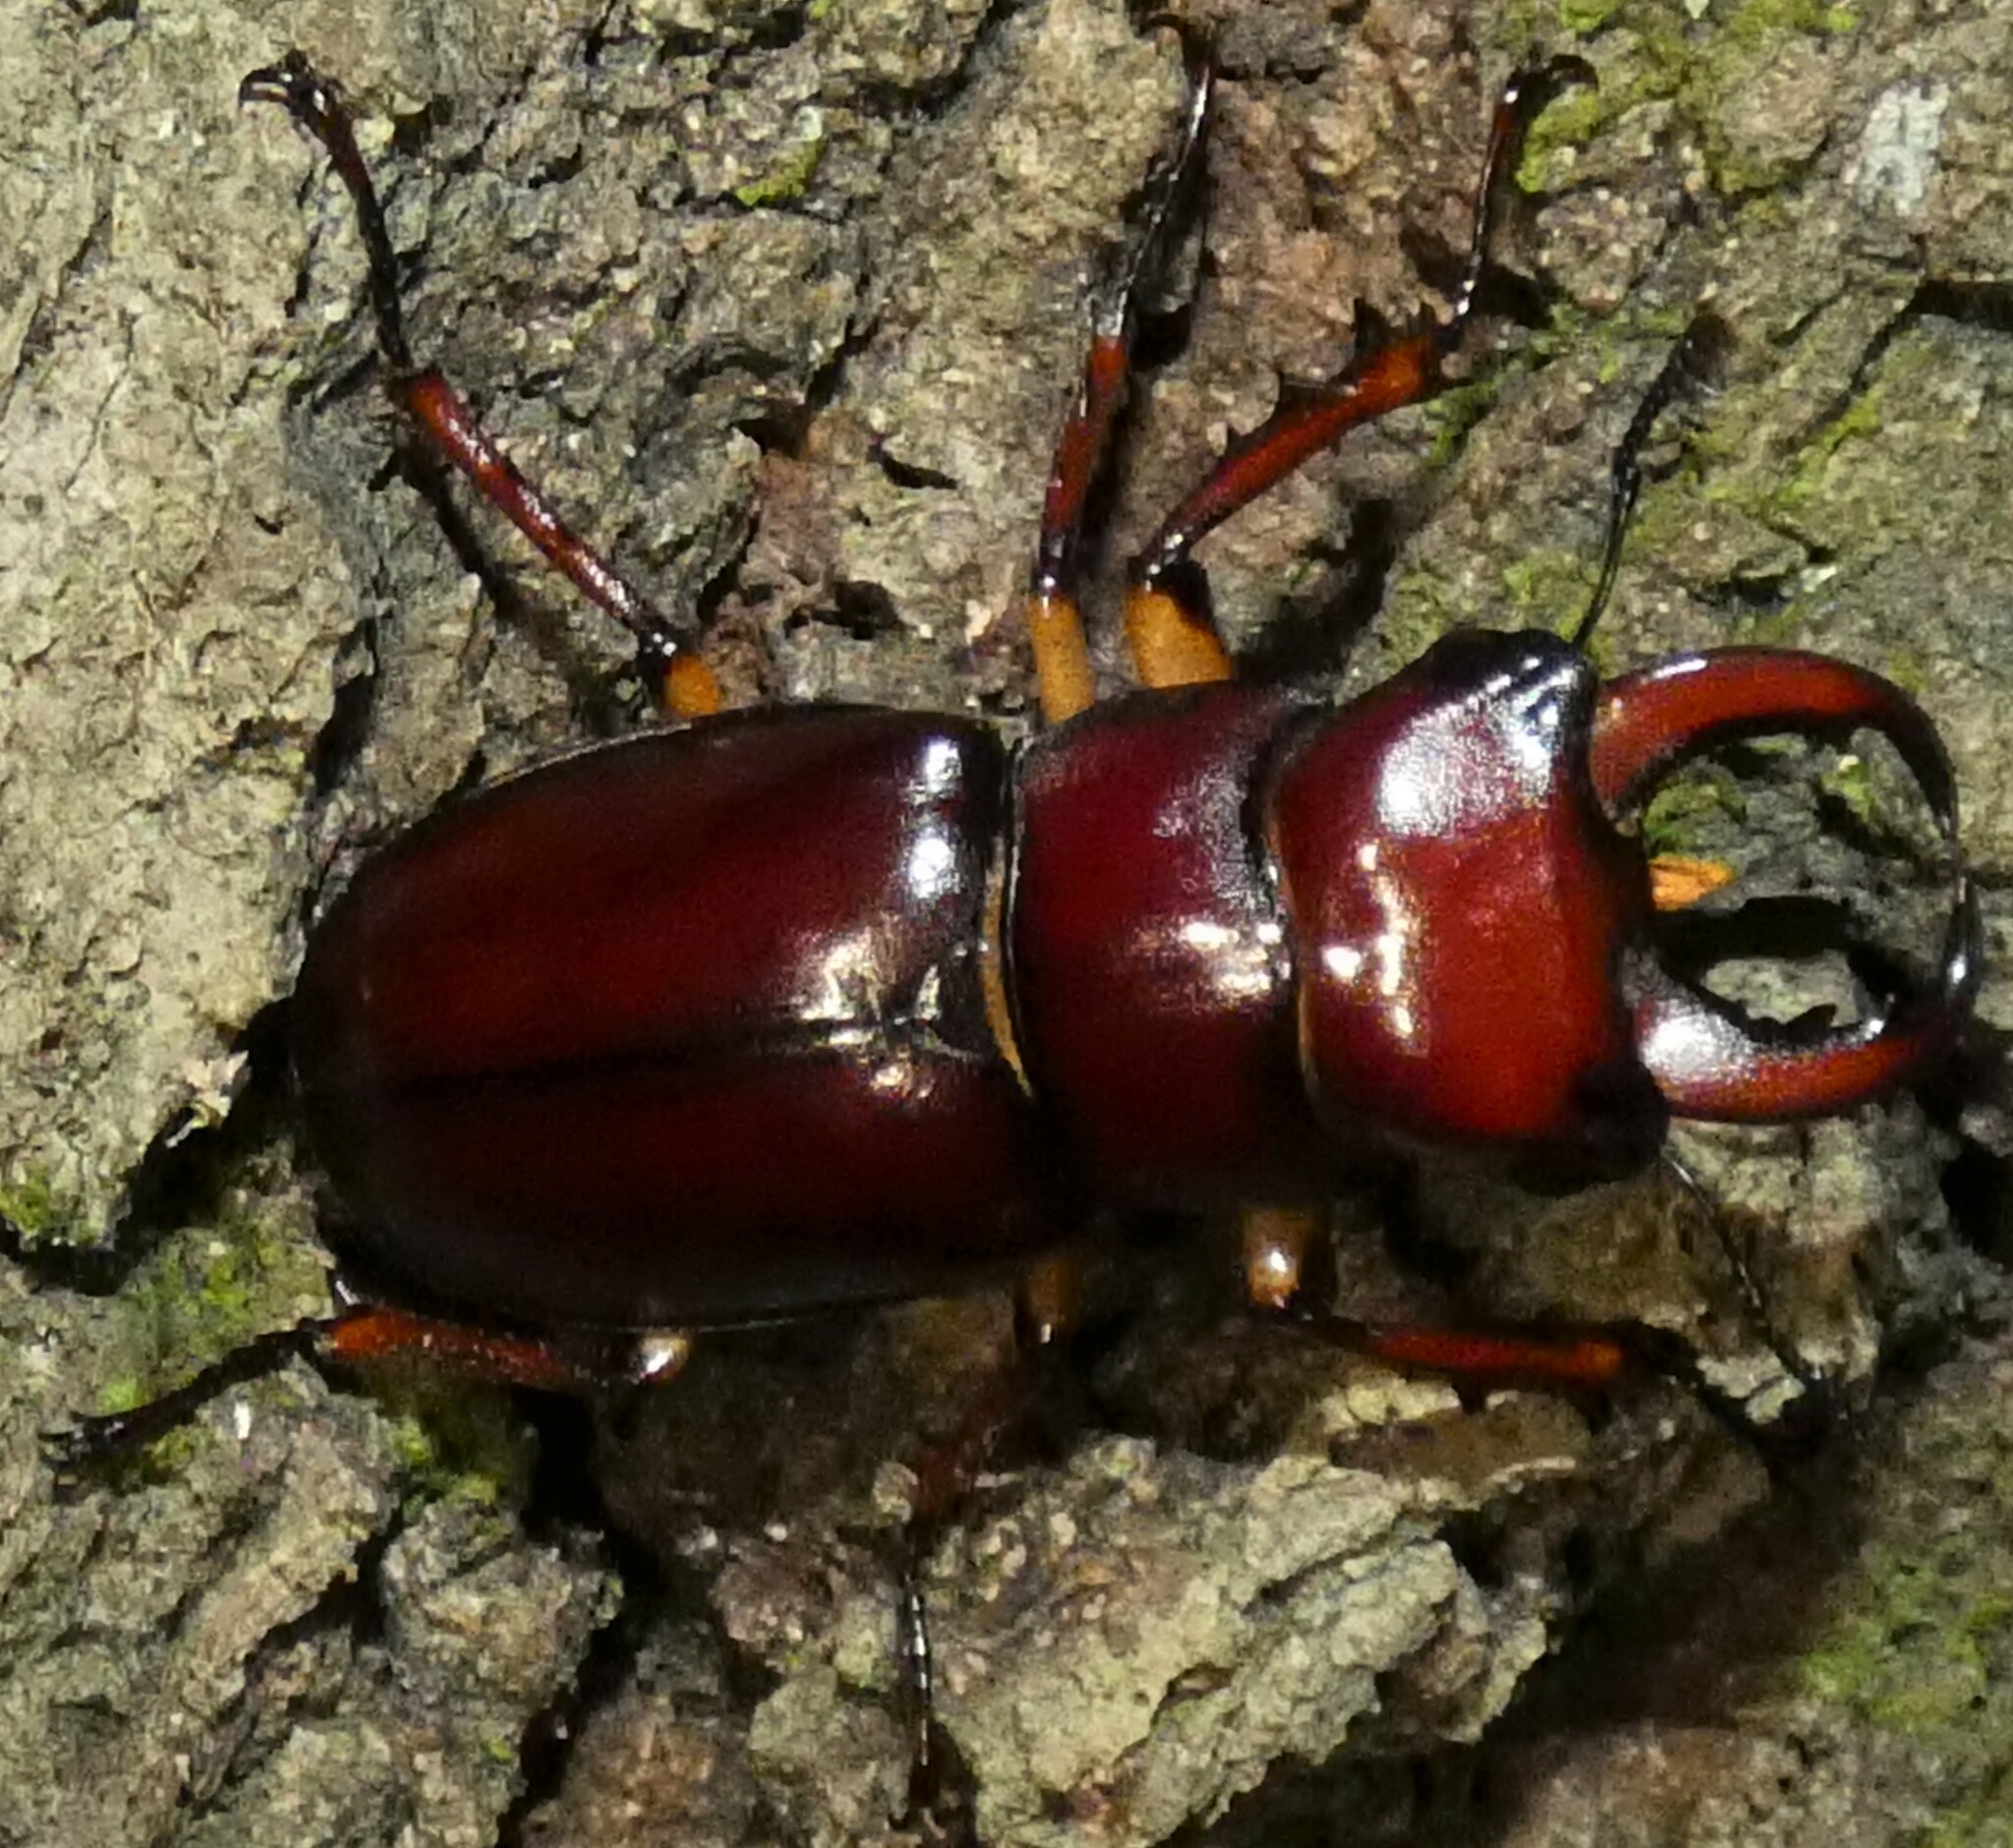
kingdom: Animalia
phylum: Arthropoda
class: Insecta
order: Coleoptera
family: Lucanidae
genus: Lucanus
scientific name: Lucanus capreolus
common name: Stag beetle
